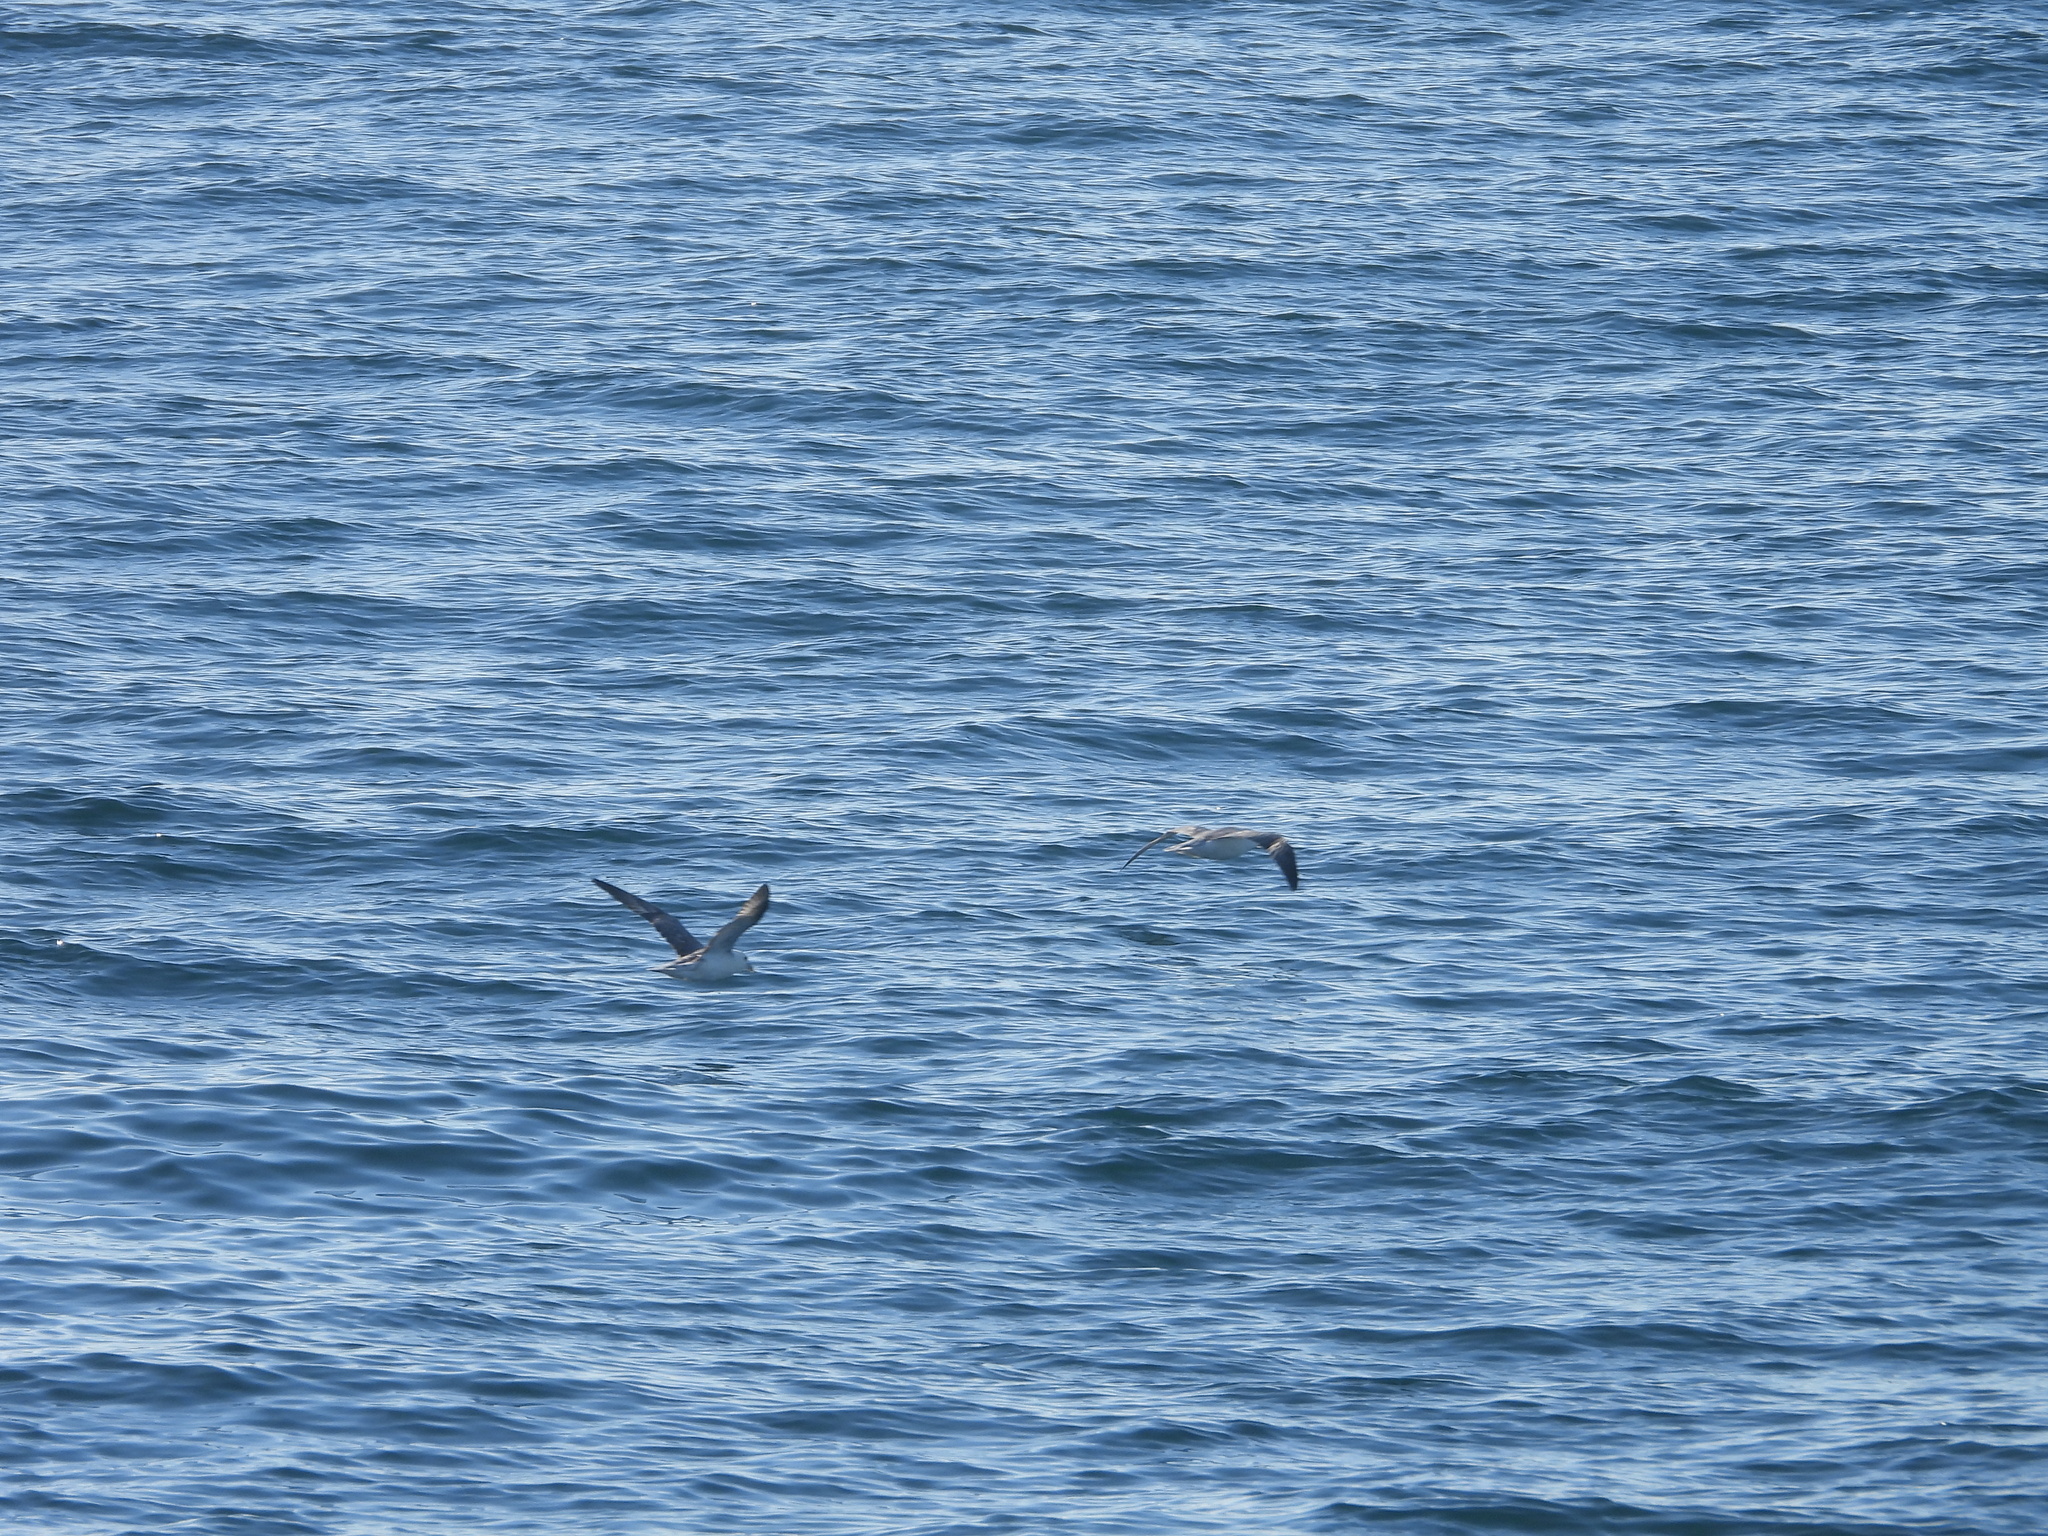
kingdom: Animalia
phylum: Chordata
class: Aves
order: Procellariiformes
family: Procellariidae
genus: Fulmarus
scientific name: Fulmarus glacialis
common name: Northern fulmar
